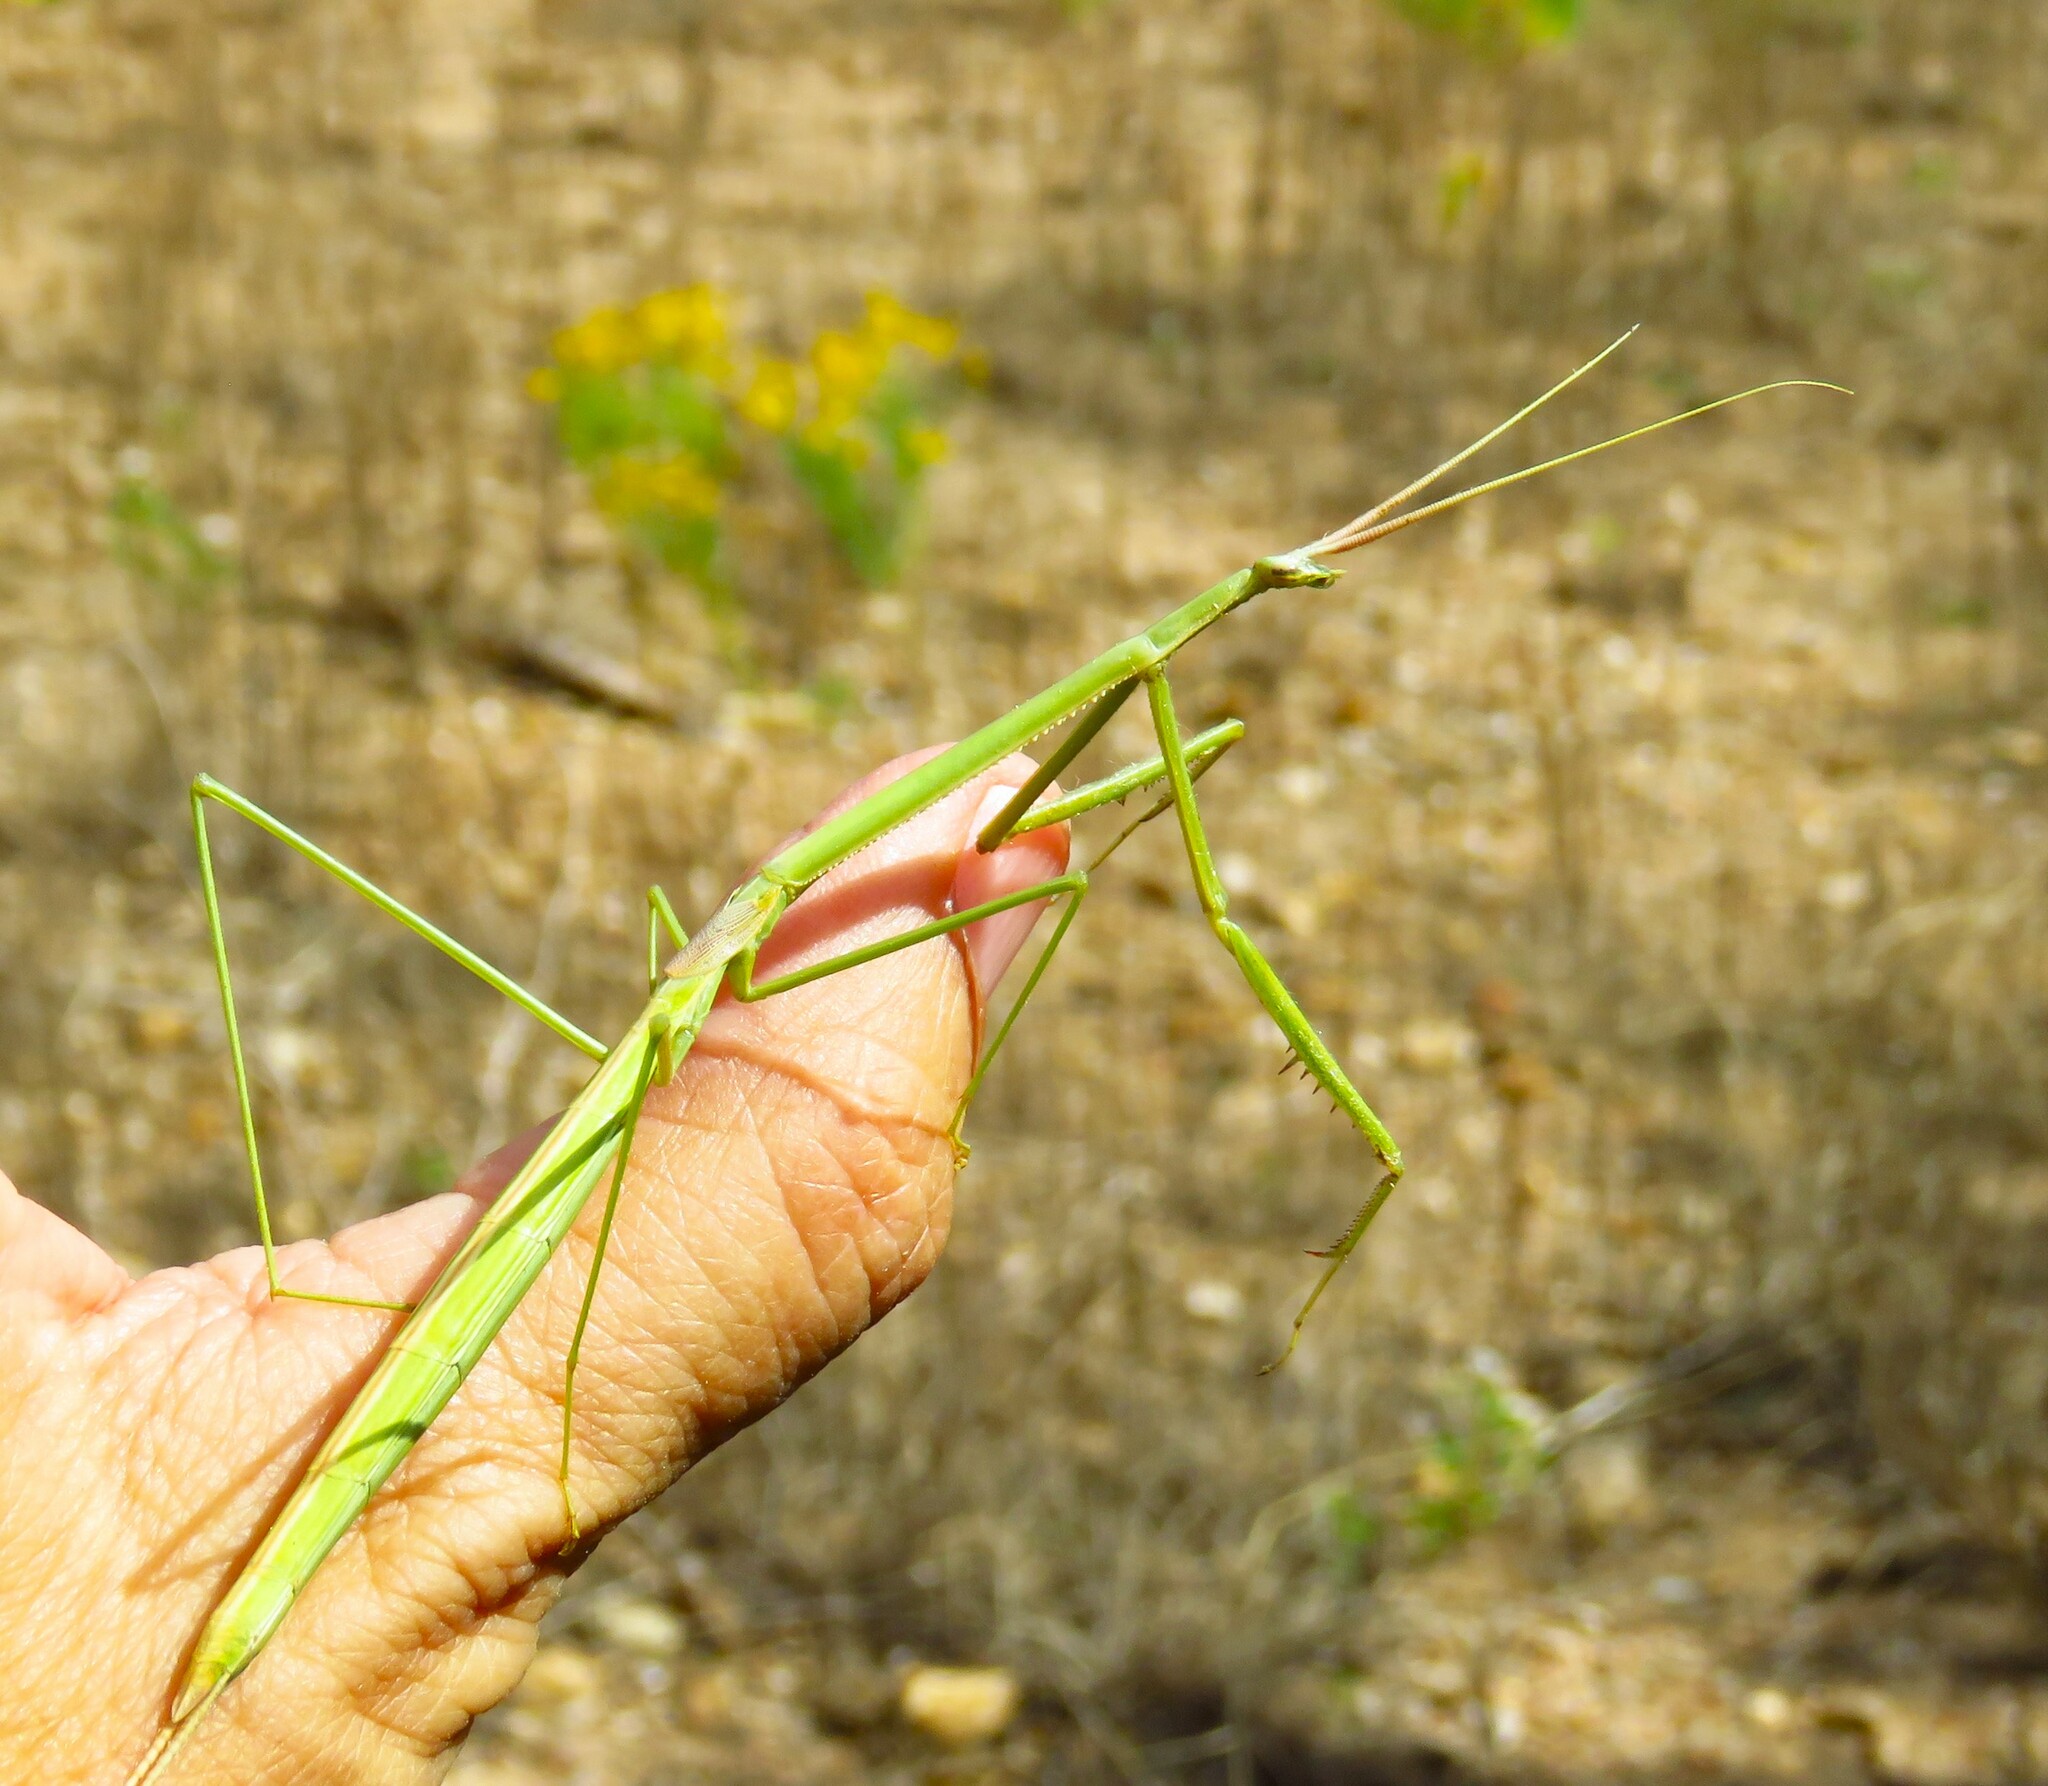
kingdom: Animalia
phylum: Arthropoda
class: Insecta
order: Mantodea
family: Coptopterygidae
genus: Brunneria
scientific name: Brunneria borealis
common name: Mantis
